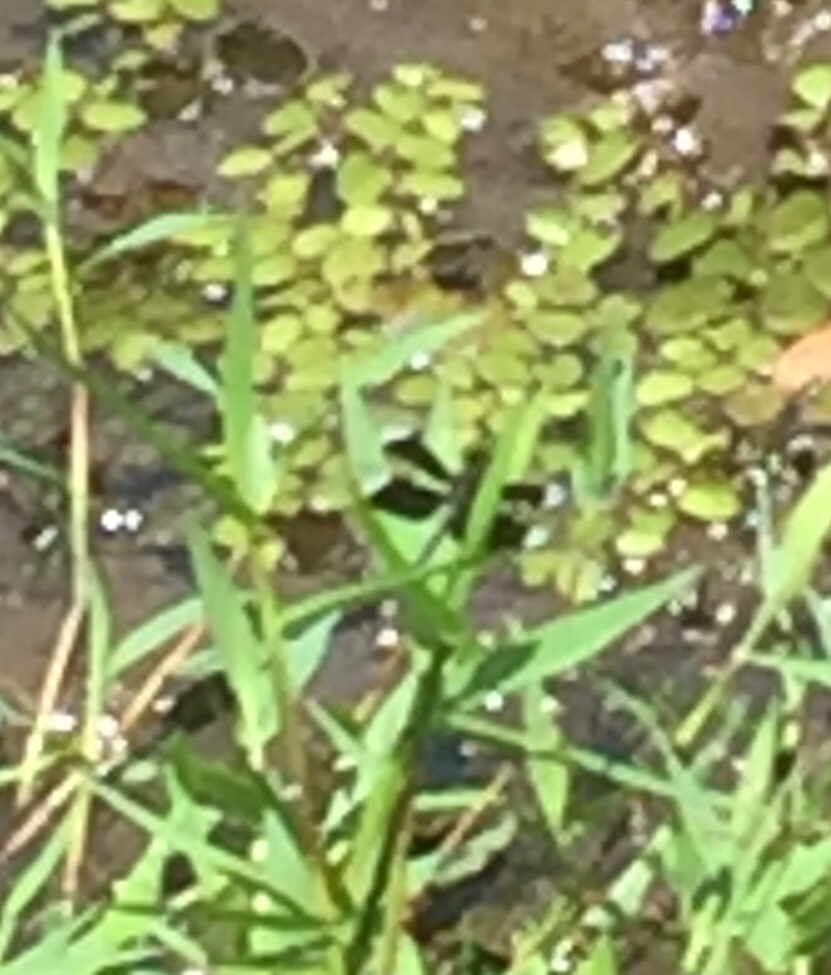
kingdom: Plantae
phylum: Tracheophyta
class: Polypodiopsida
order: Salviniales
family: Salviniaceae
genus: Salvinia
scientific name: Salvinia molesta
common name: Kariba weed
